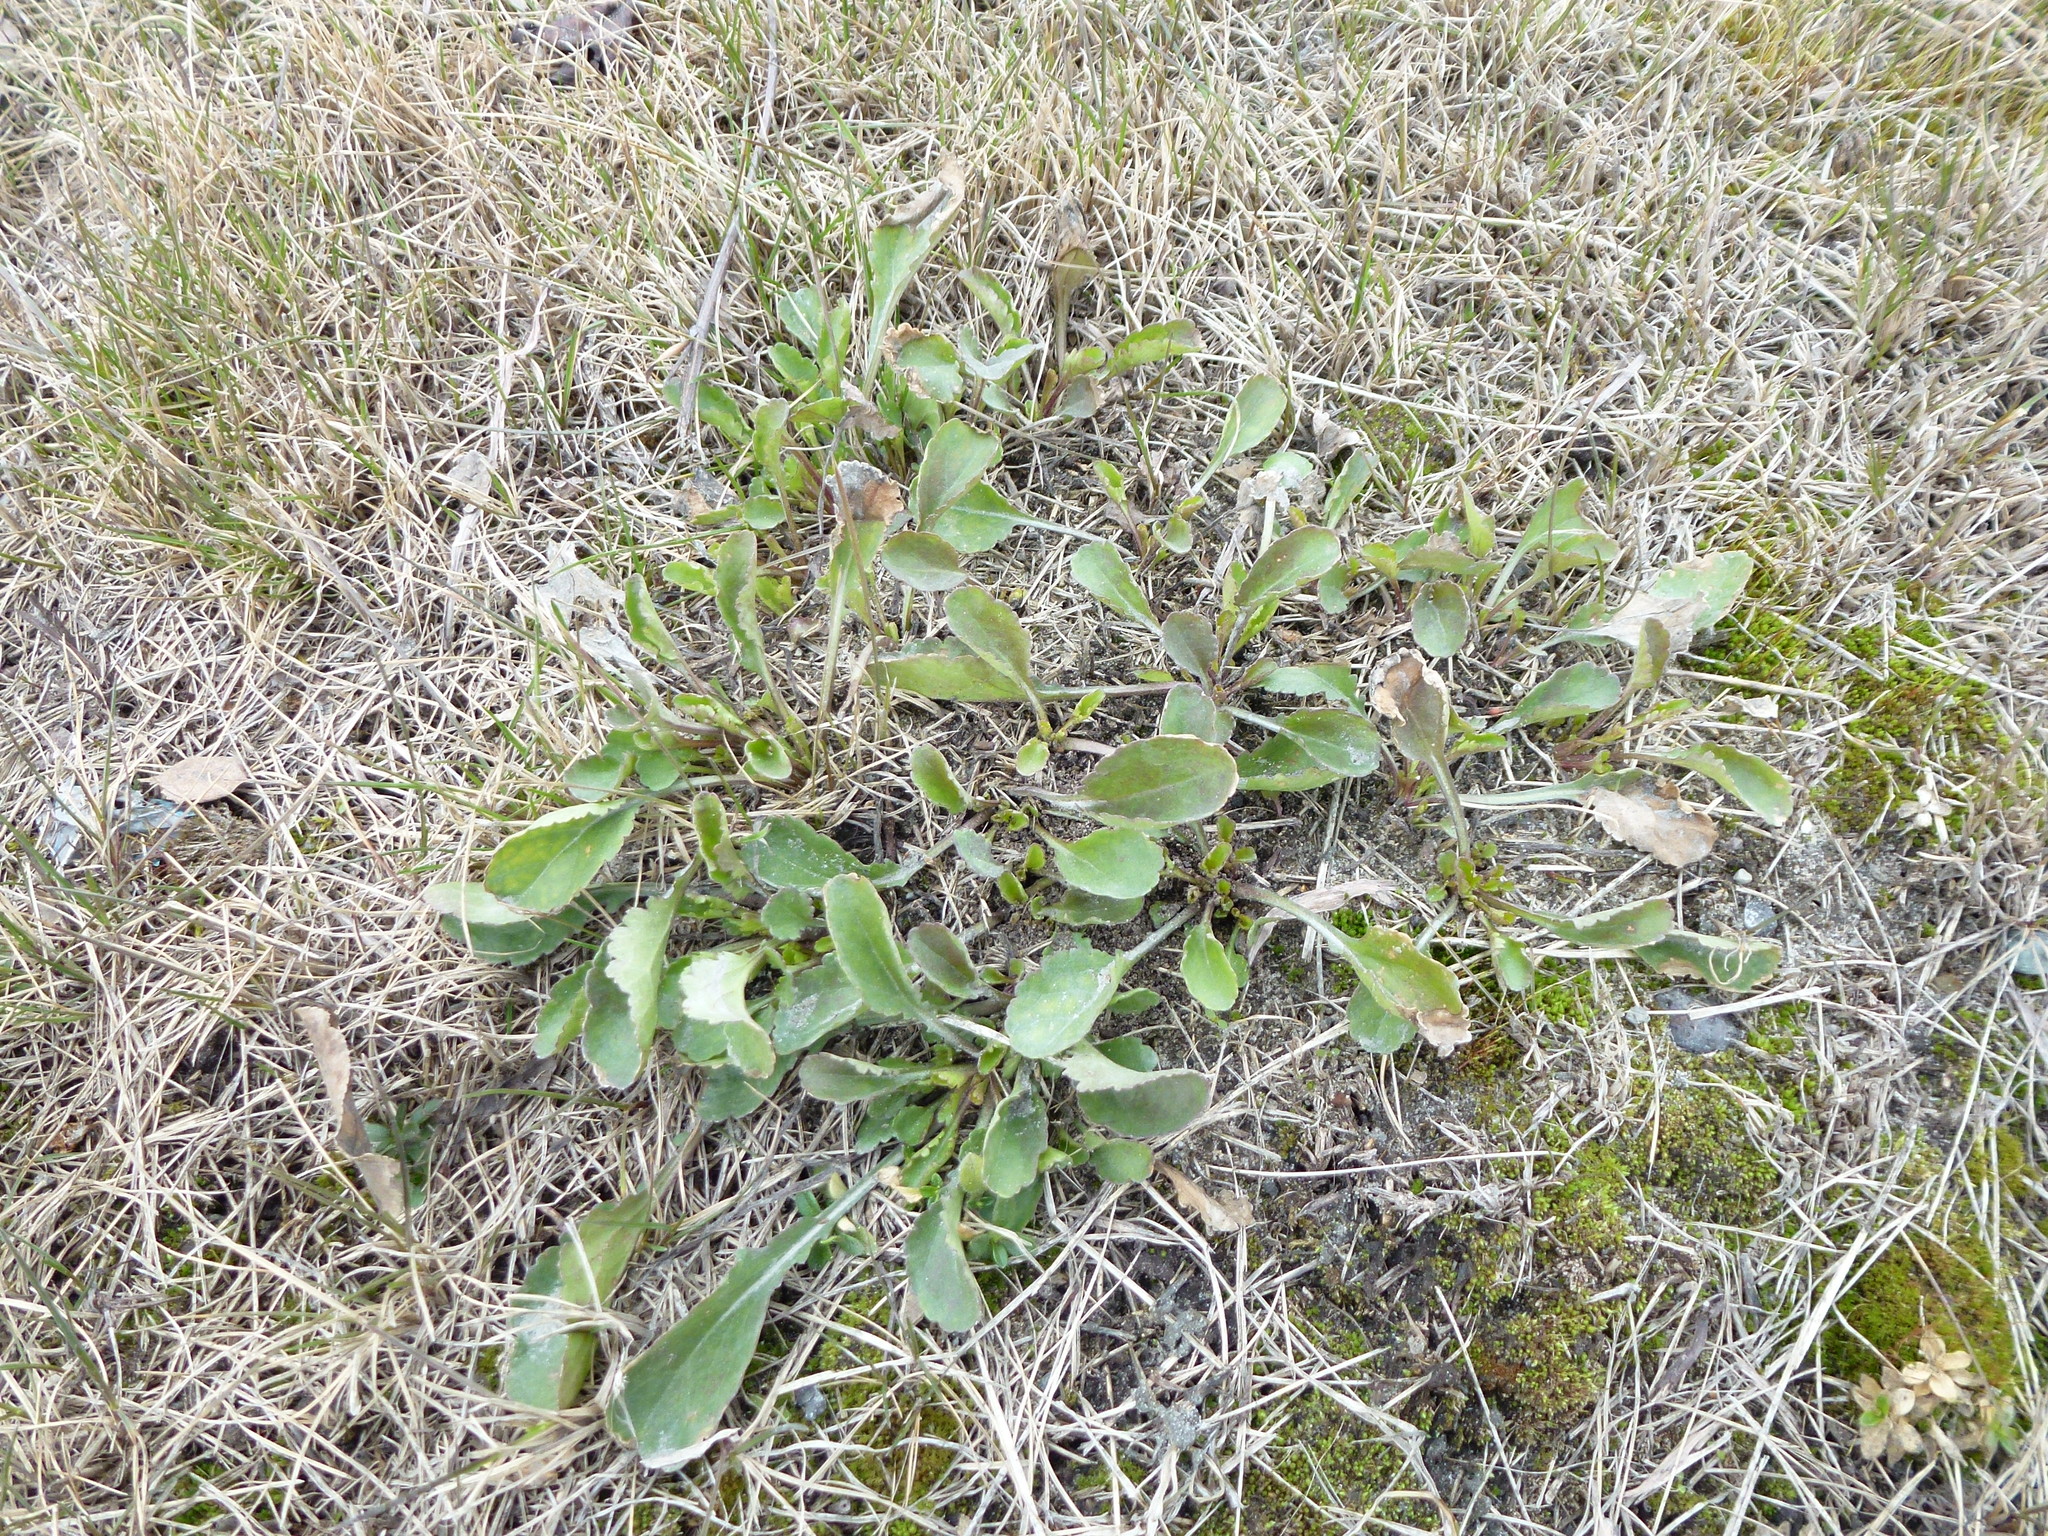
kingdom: Plantae
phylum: Tracheophyta
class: Magnoliopsida
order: Asterales
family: Asteraceae
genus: Leucanthemum
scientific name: Leucanthemum ircutianum
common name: Daisy
